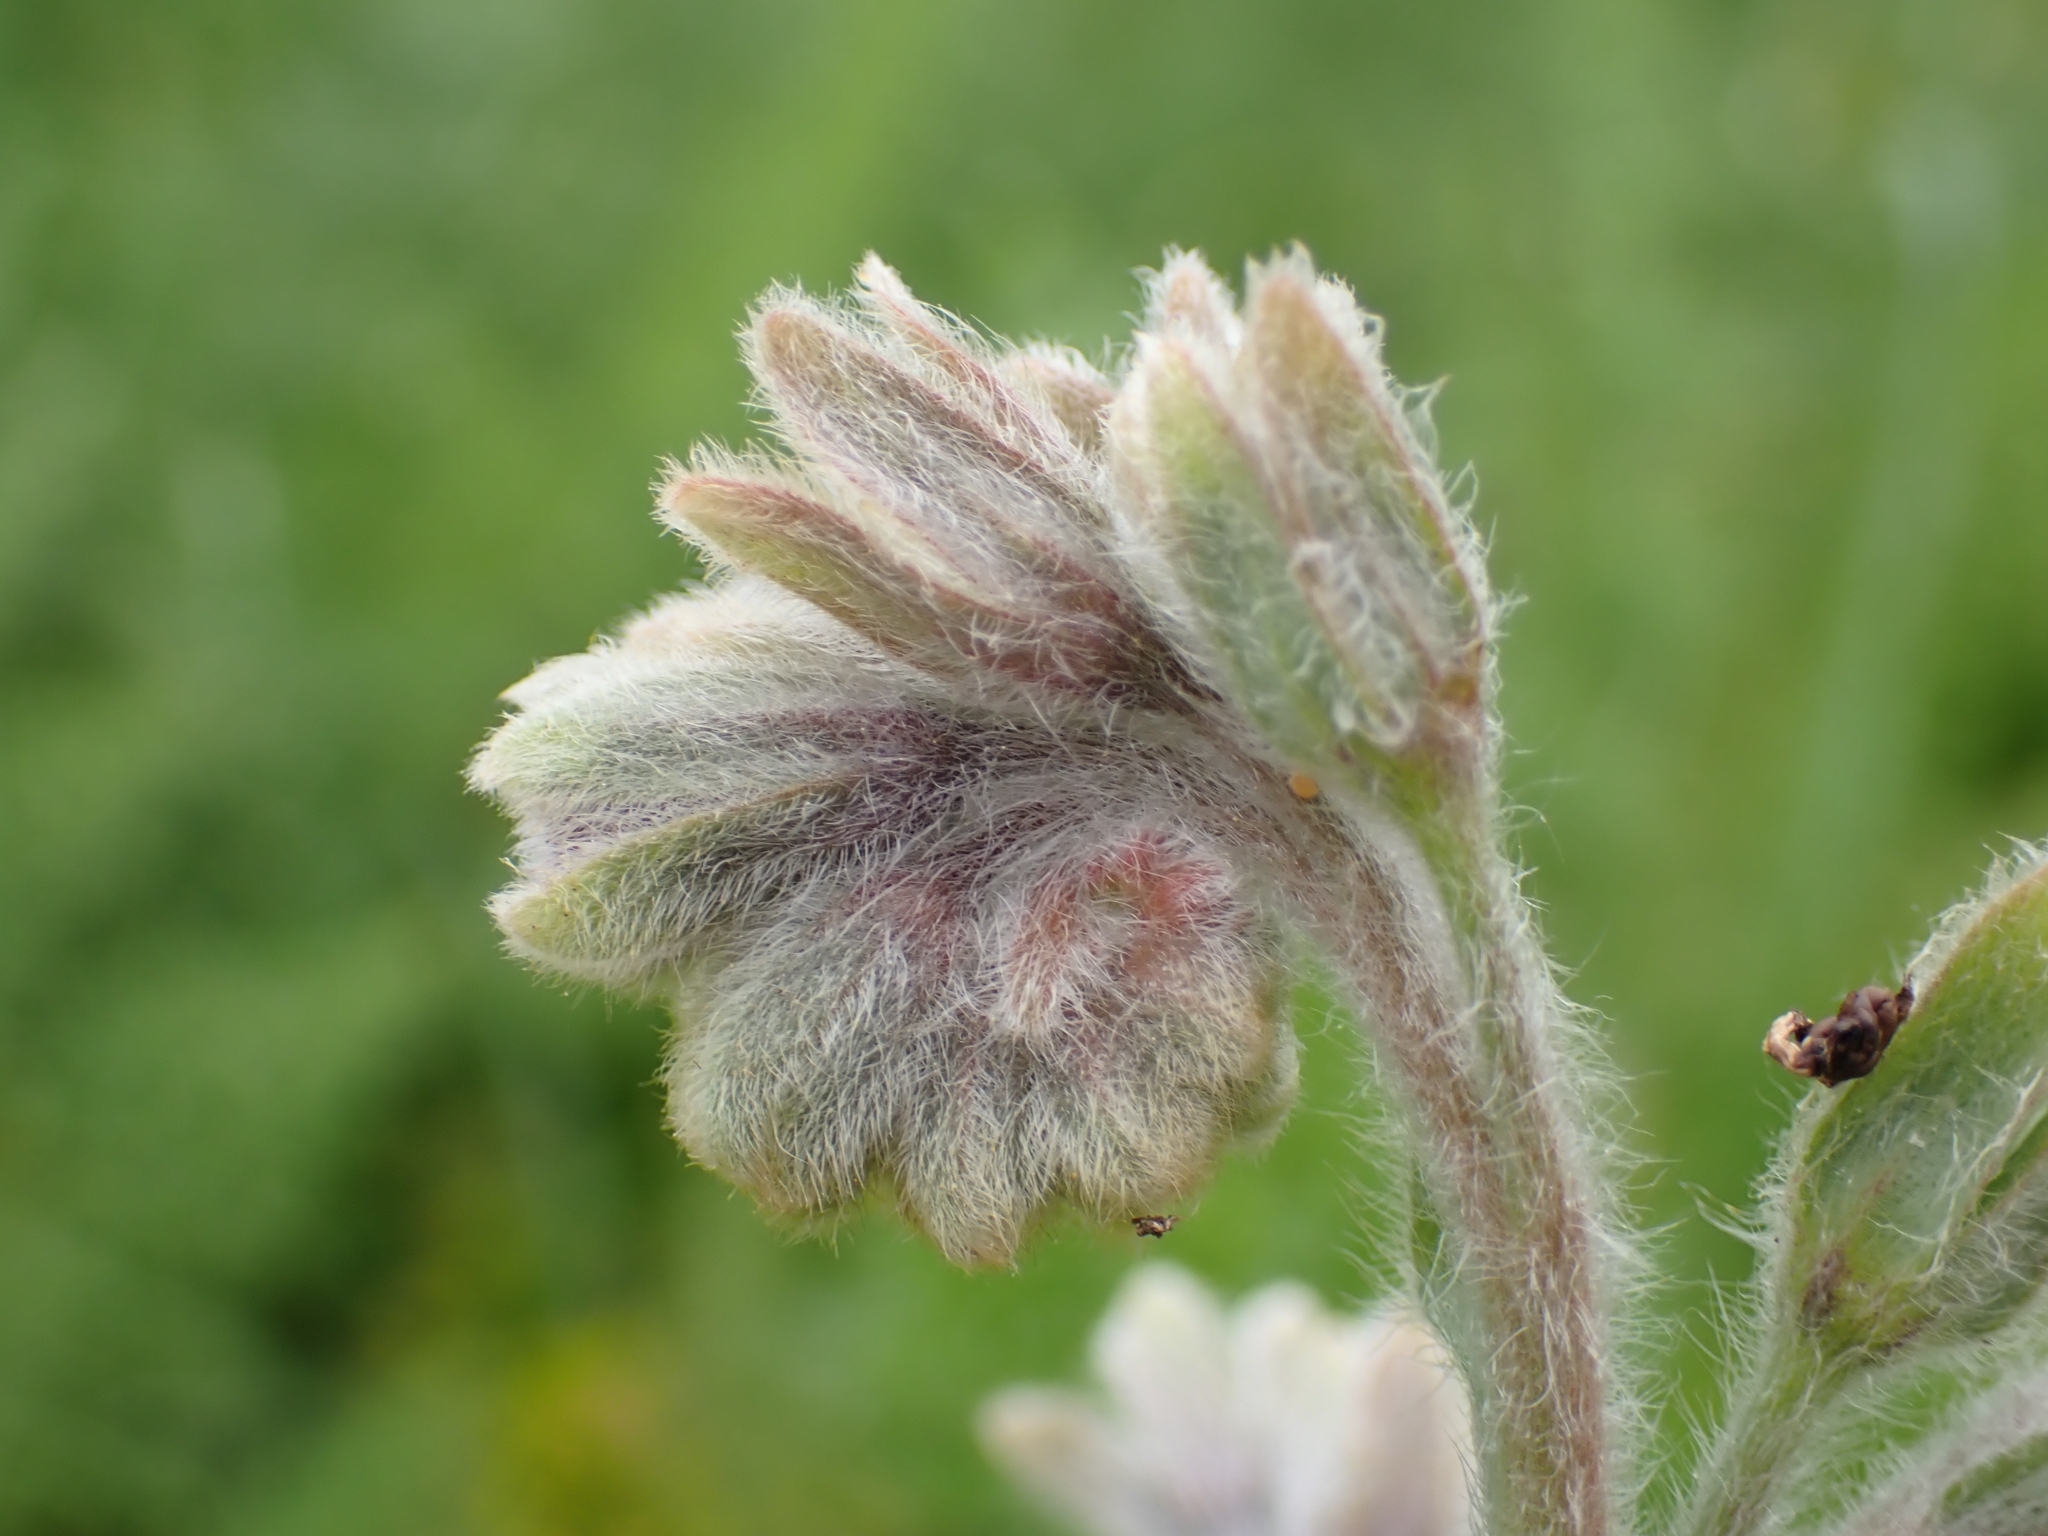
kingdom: Plantae
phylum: Tracheophyta
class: Magnoliopsida
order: Boraginales
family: Boraginaceae
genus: Cynoglossum
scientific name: Cynoglossum clandestinum
